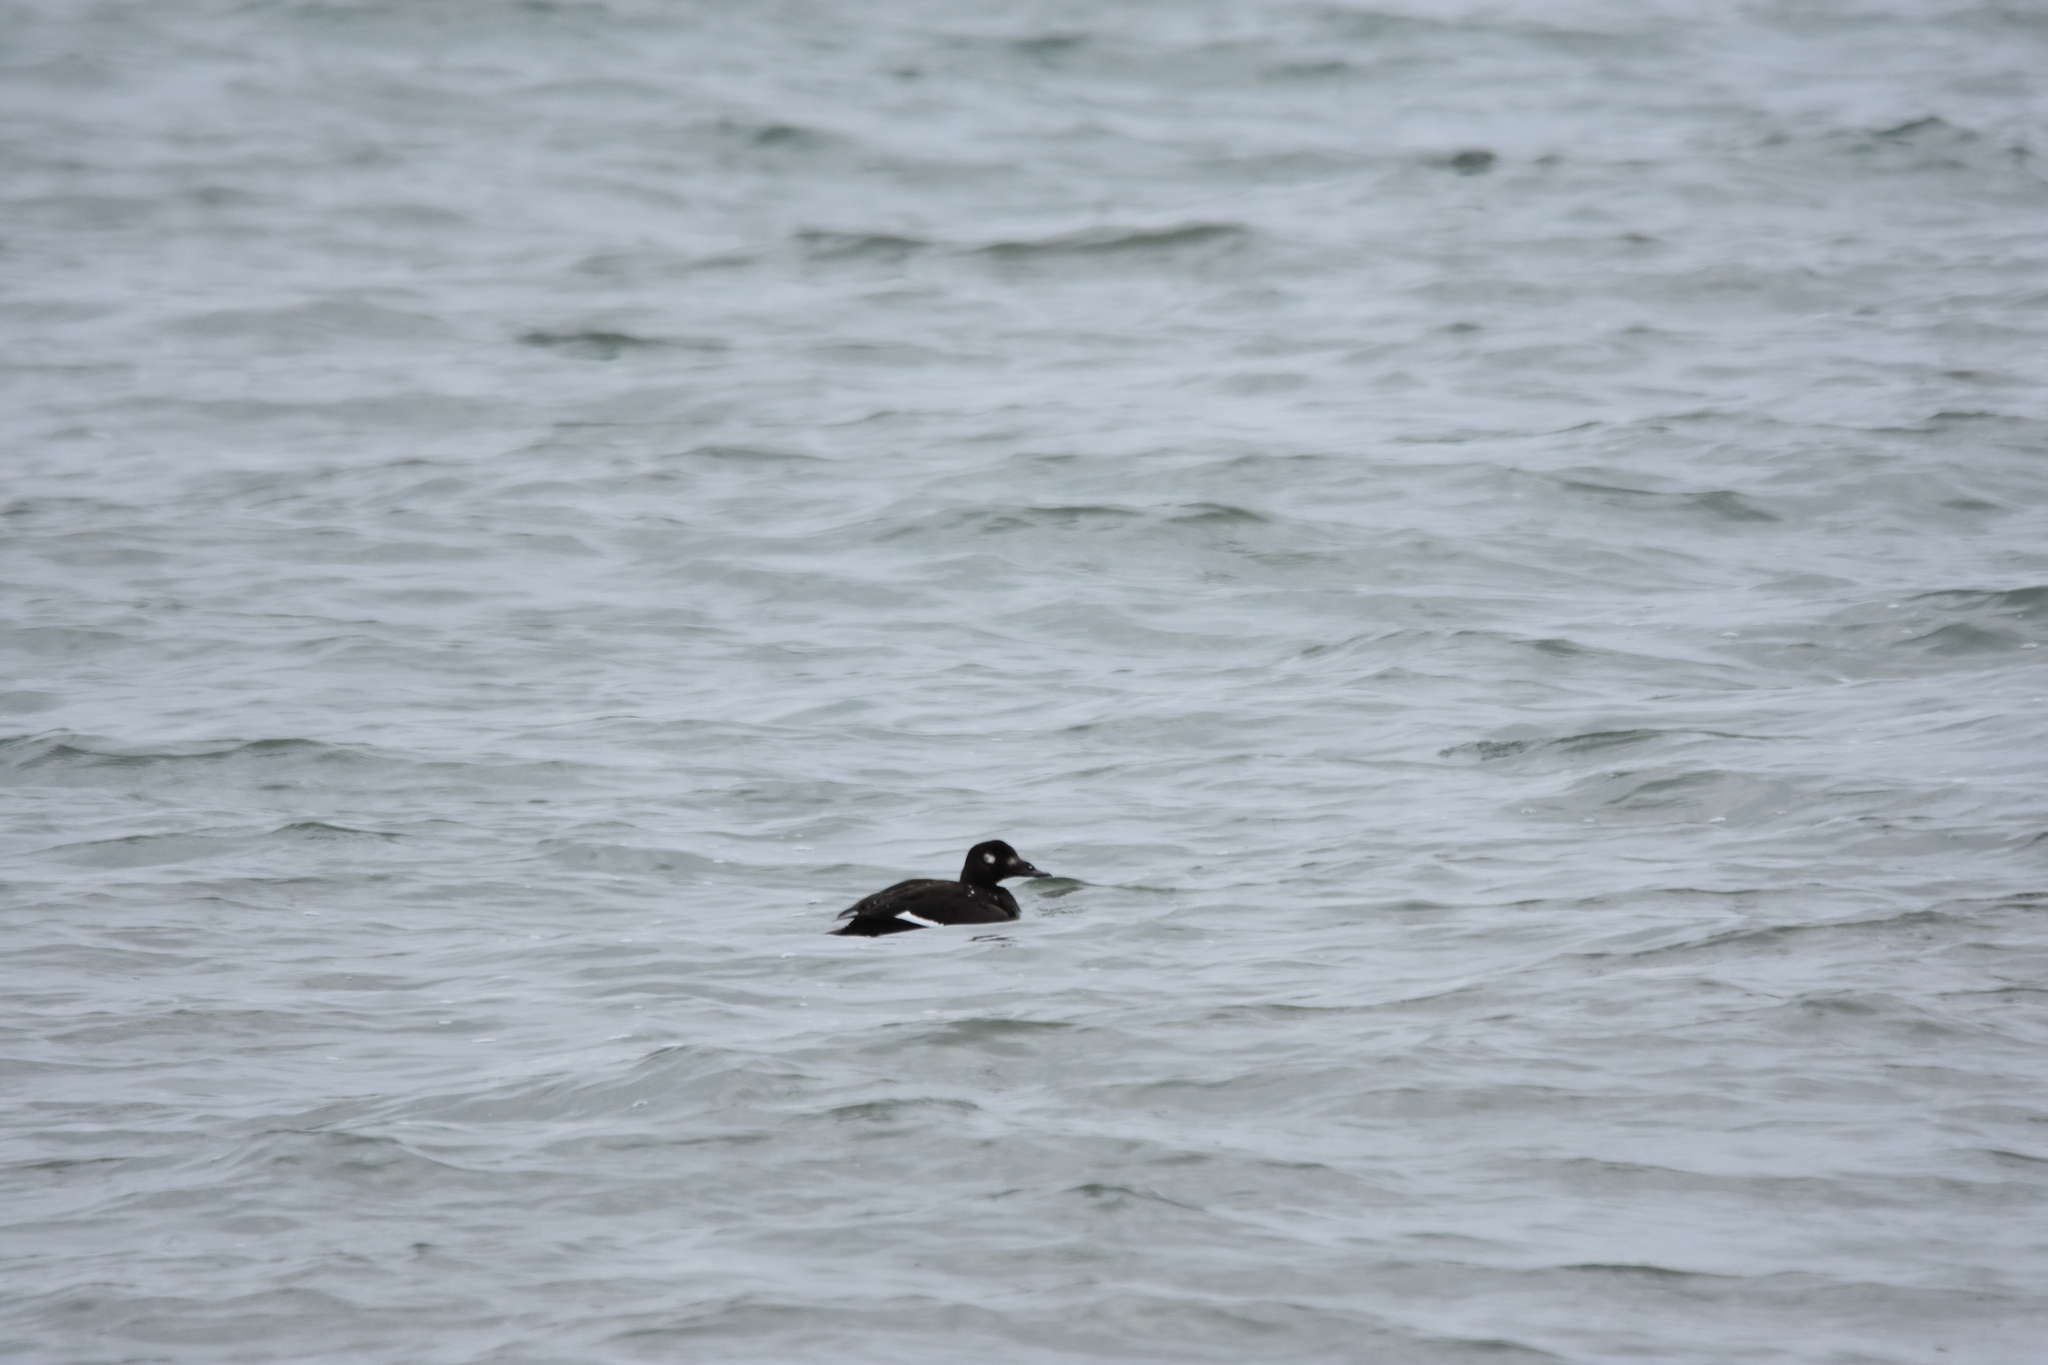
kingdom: Animalia
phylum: Chordata
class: Aves
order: Anseriformes
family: Anatidae
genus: Melanitta
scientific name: Melanitta deglandi
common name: White-winged scoter
